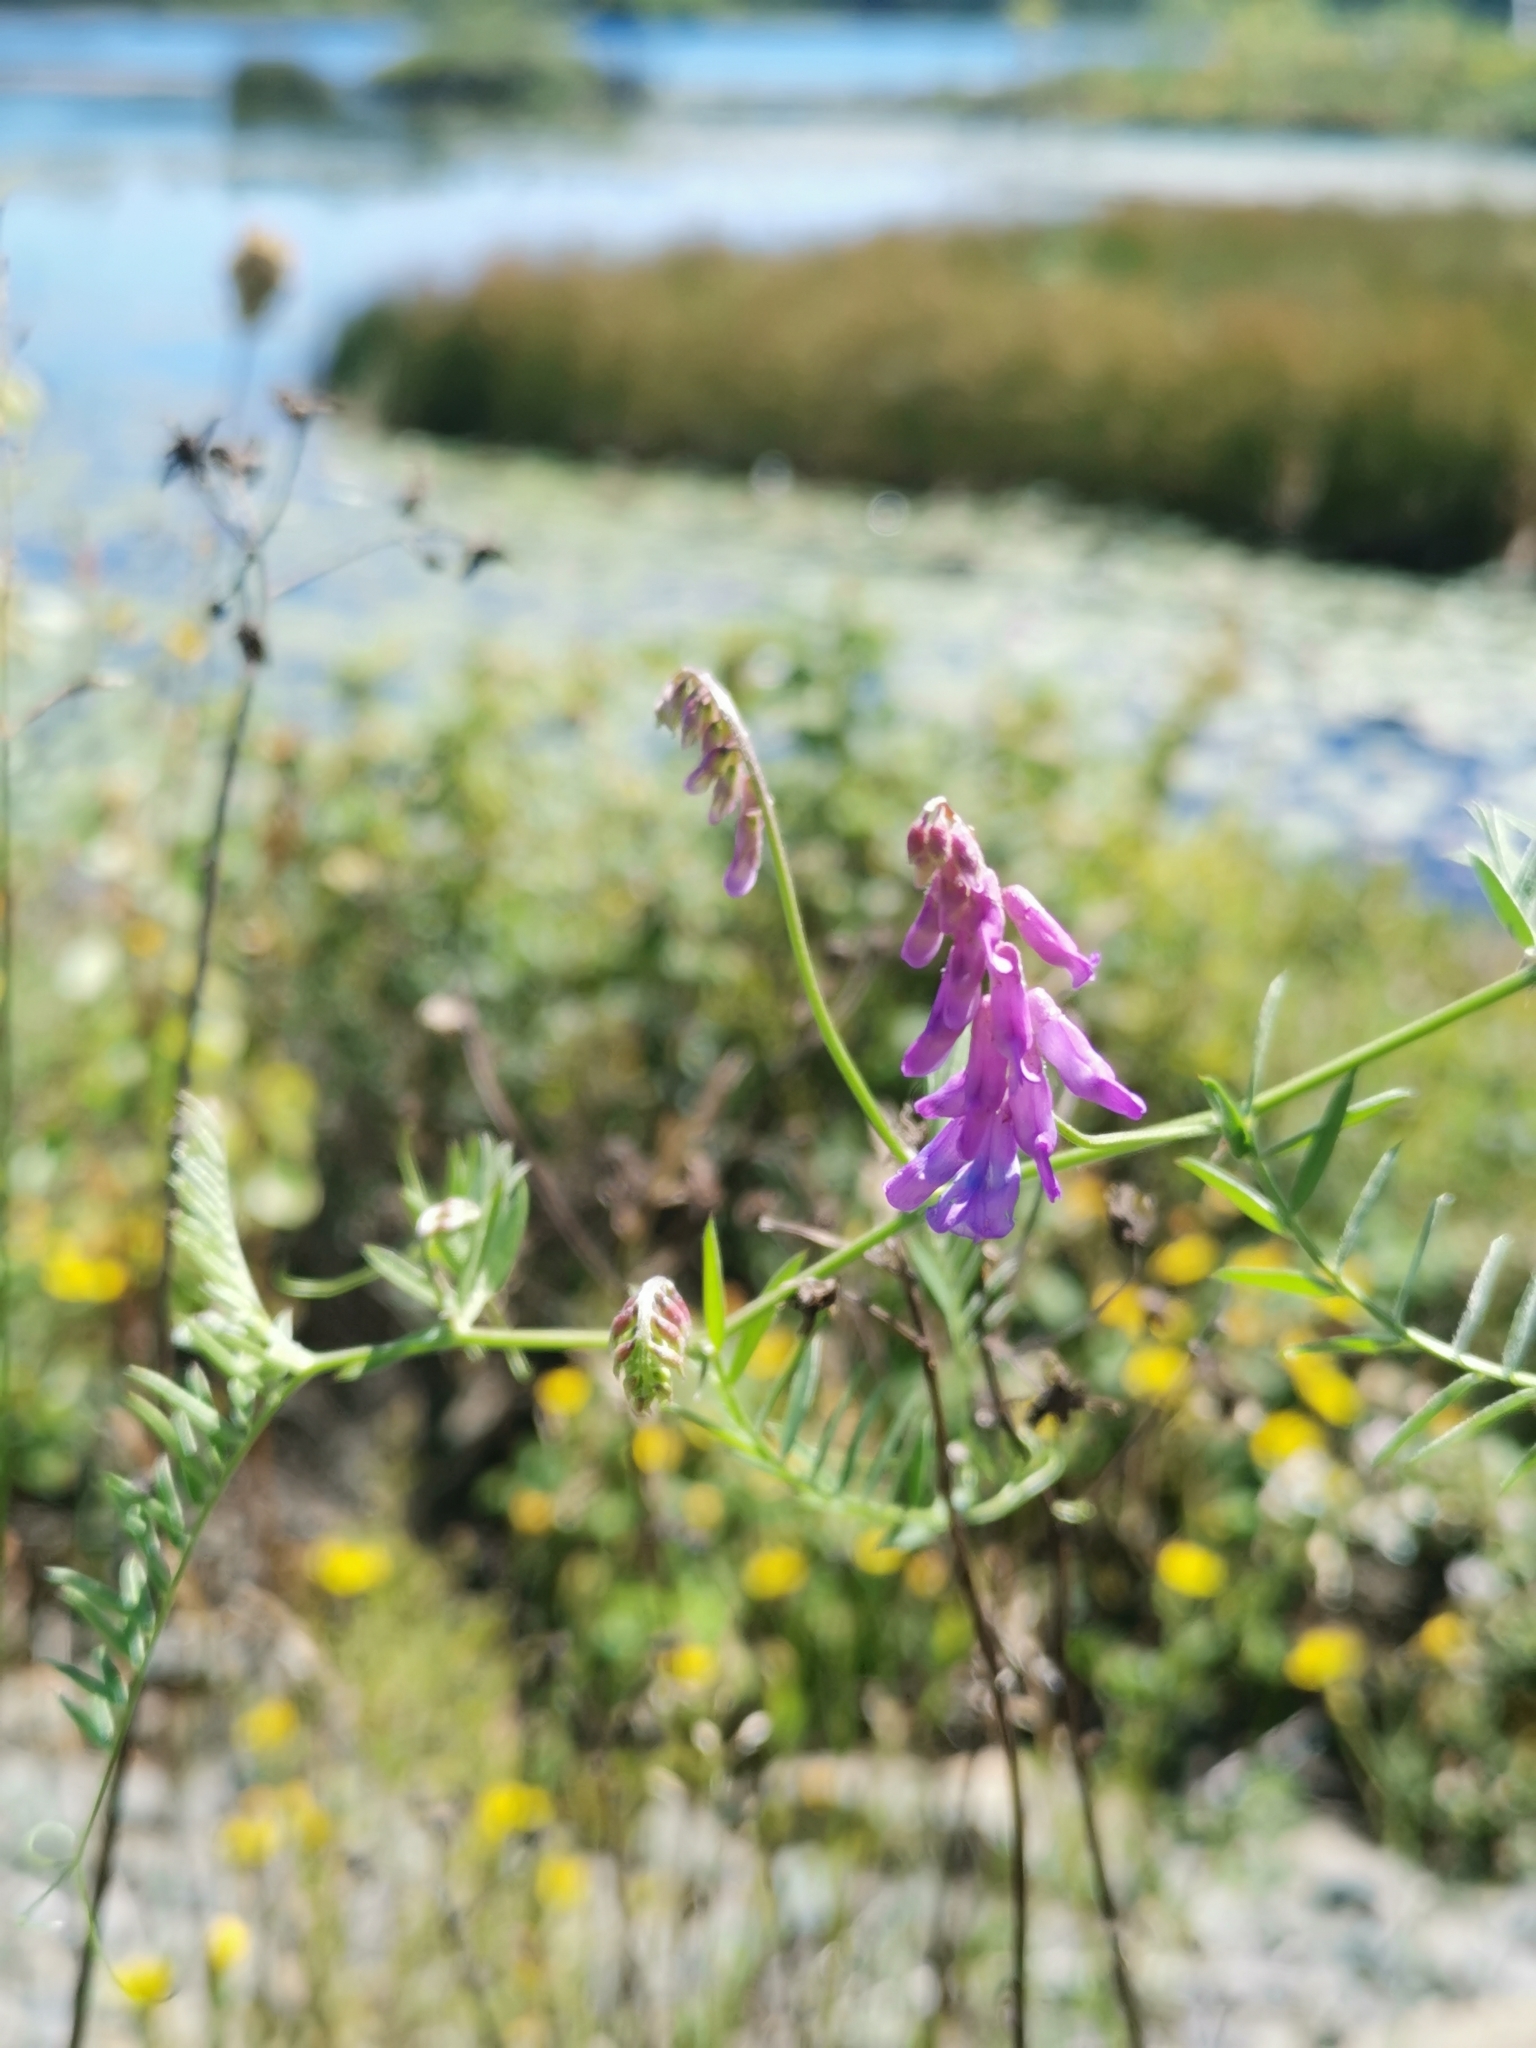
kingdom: Plantae
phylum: Tracheophyta
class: Magnoliopsida
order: Fabales
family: Fabaceae
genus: Vicia
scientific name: Vicia cracca
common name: Bird vetch
